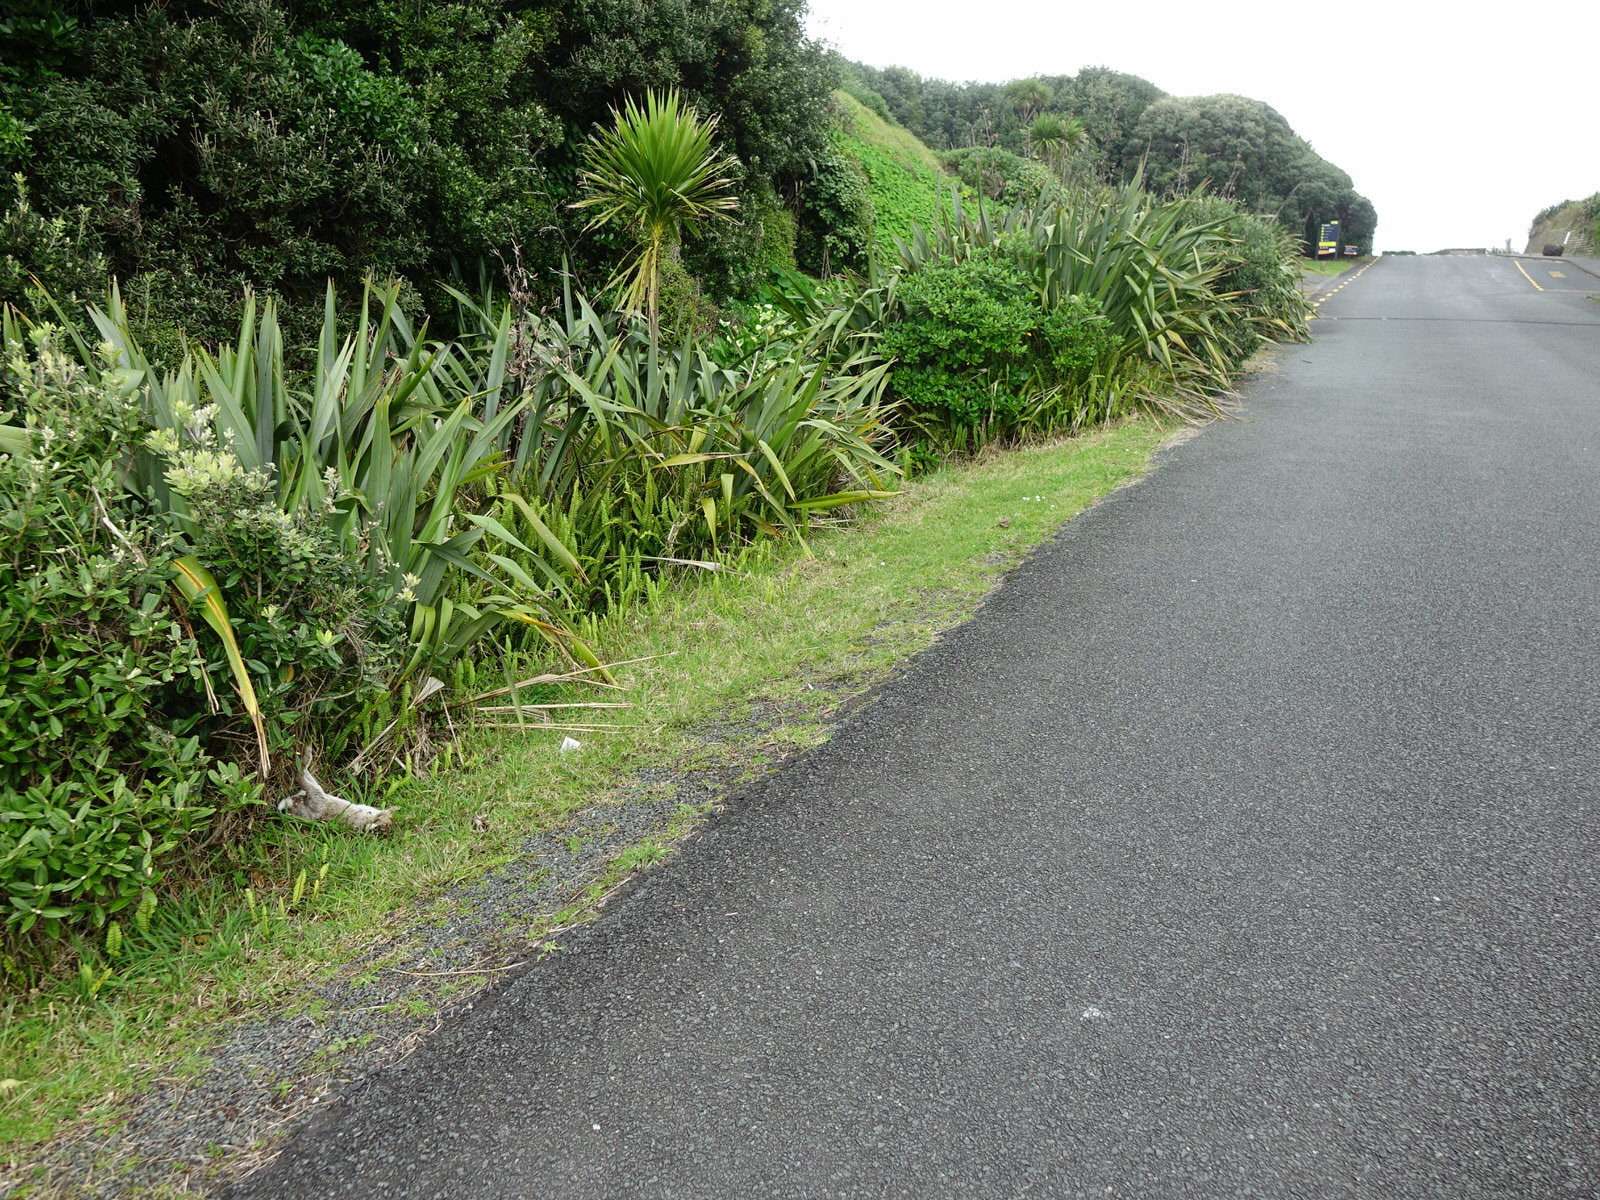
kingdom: Animalia
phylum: Chordata
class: Mammalia
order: Lagomorpha
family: Leporidae
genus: Oryctolagus
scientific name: Oryctolagus cuniculus
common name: European rabbit
